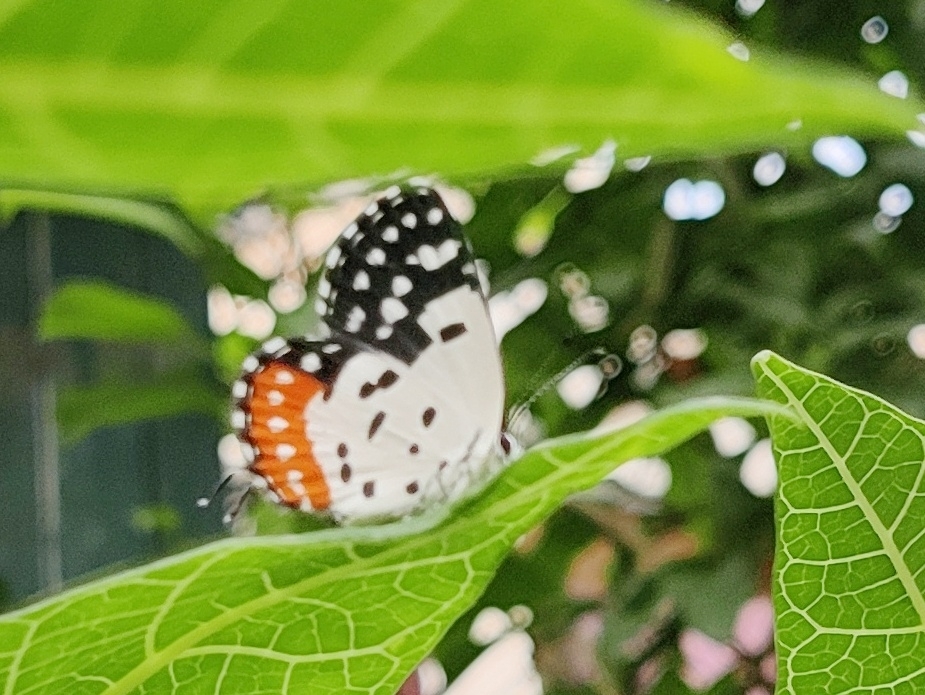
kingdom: Animalia
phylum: Arthropoda
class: Insecta
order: Lepidoptera
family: Lycaenidae
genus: Talicada
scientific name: Talicada nyseus
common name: Red pierrot
